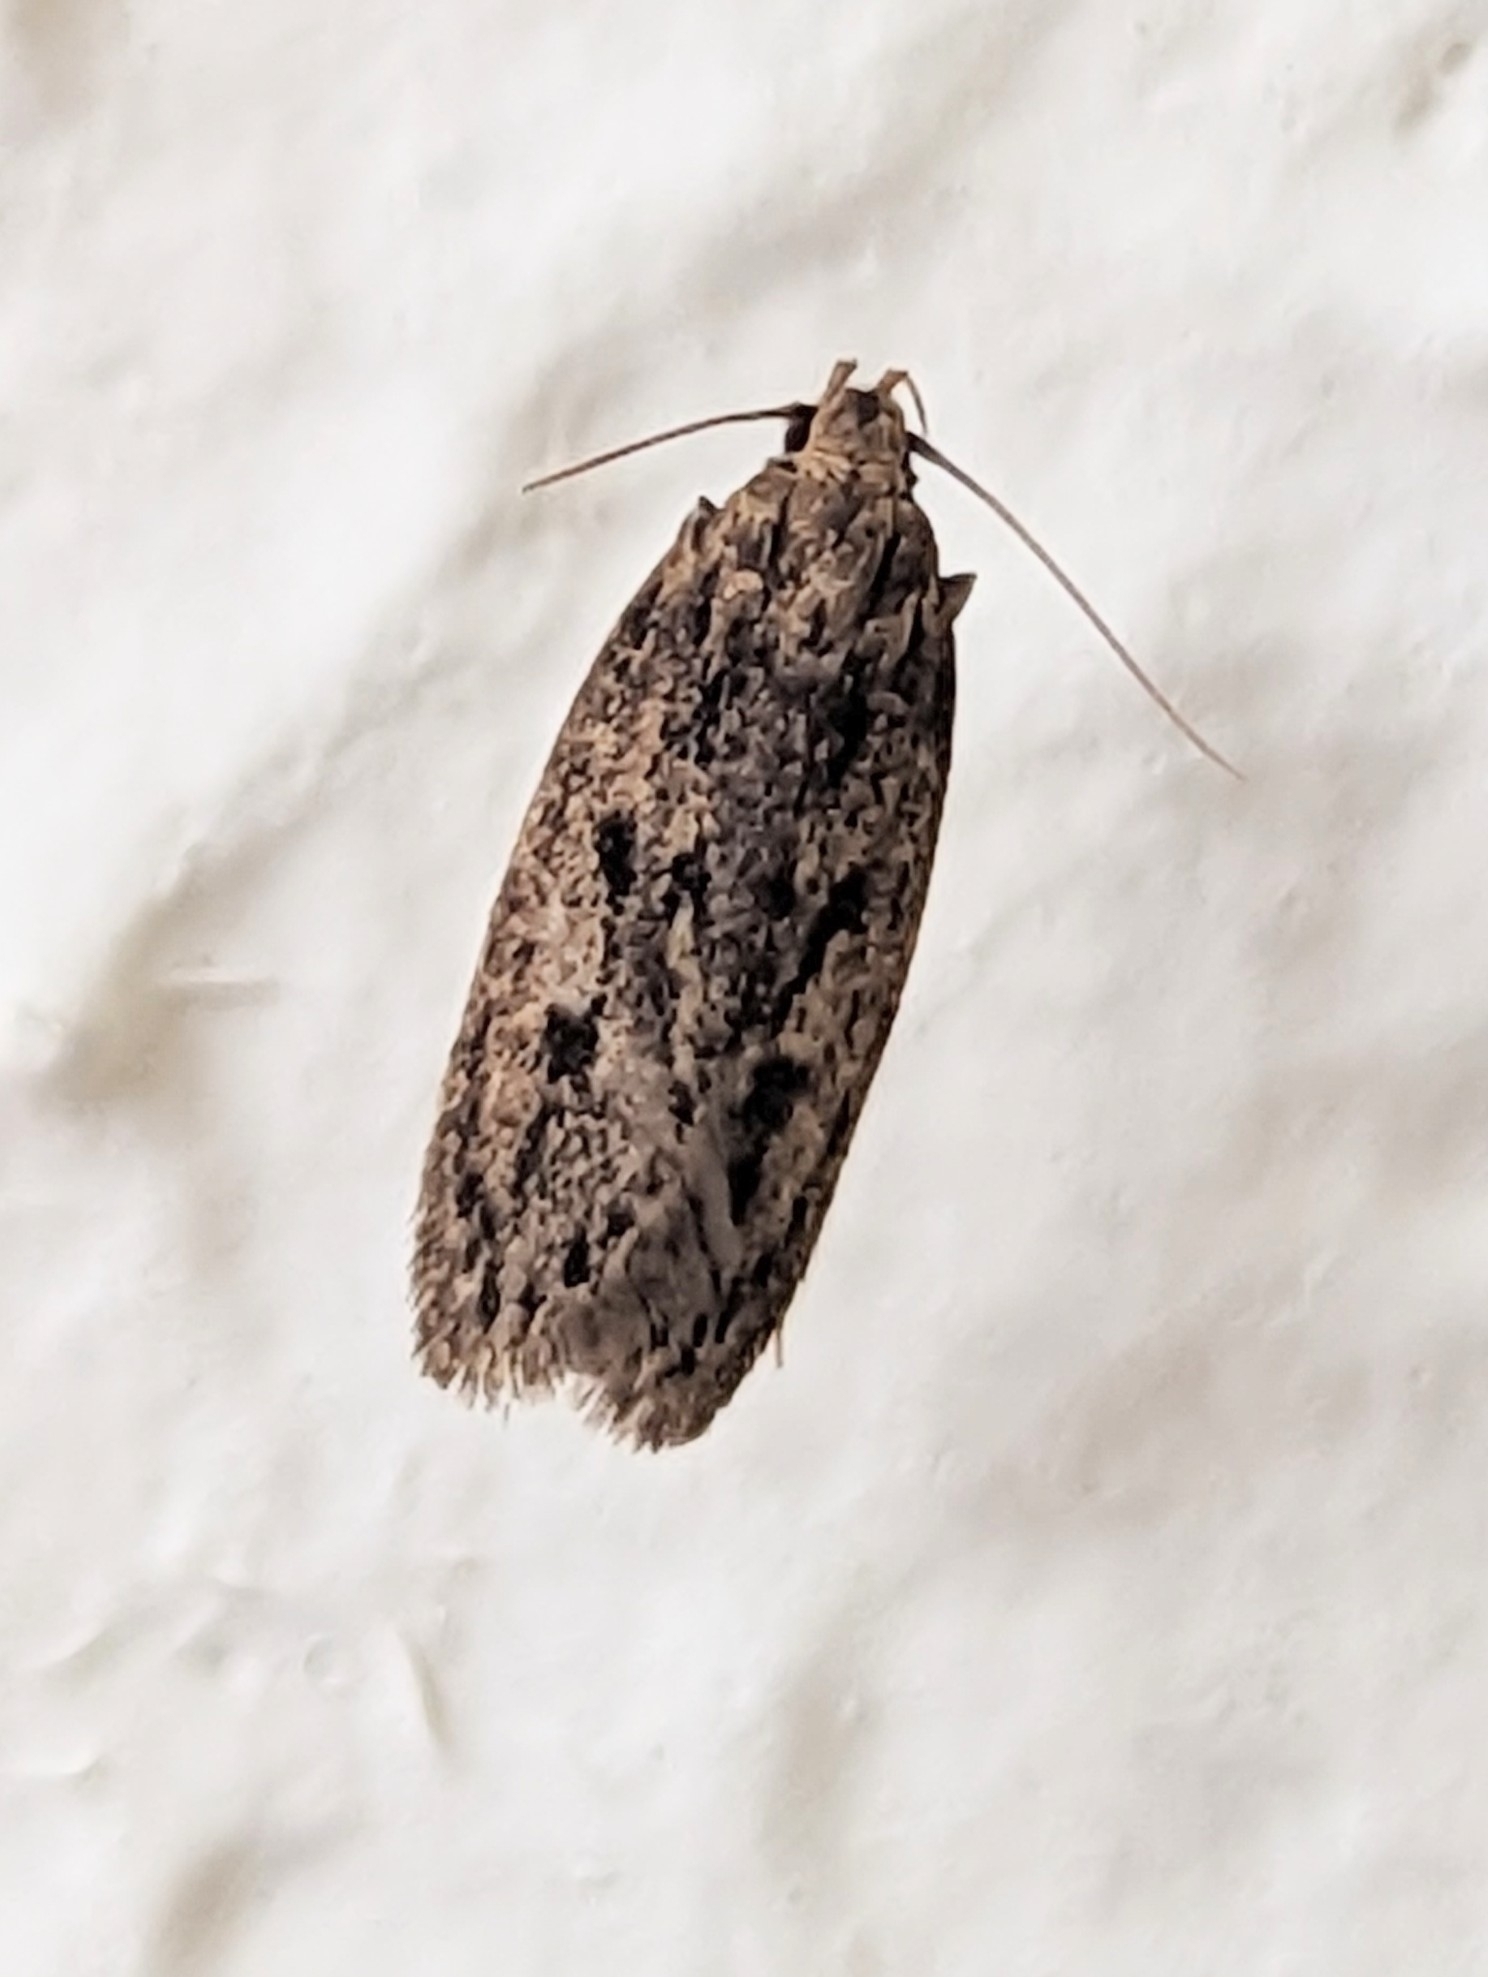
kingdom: Animalia
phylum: Arthropoda
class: Insecta
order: Lepidoptera
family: Oecophoridae
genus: Hofmannophila
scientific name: Hofmannophila pseudospretella
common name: Brown house moth
